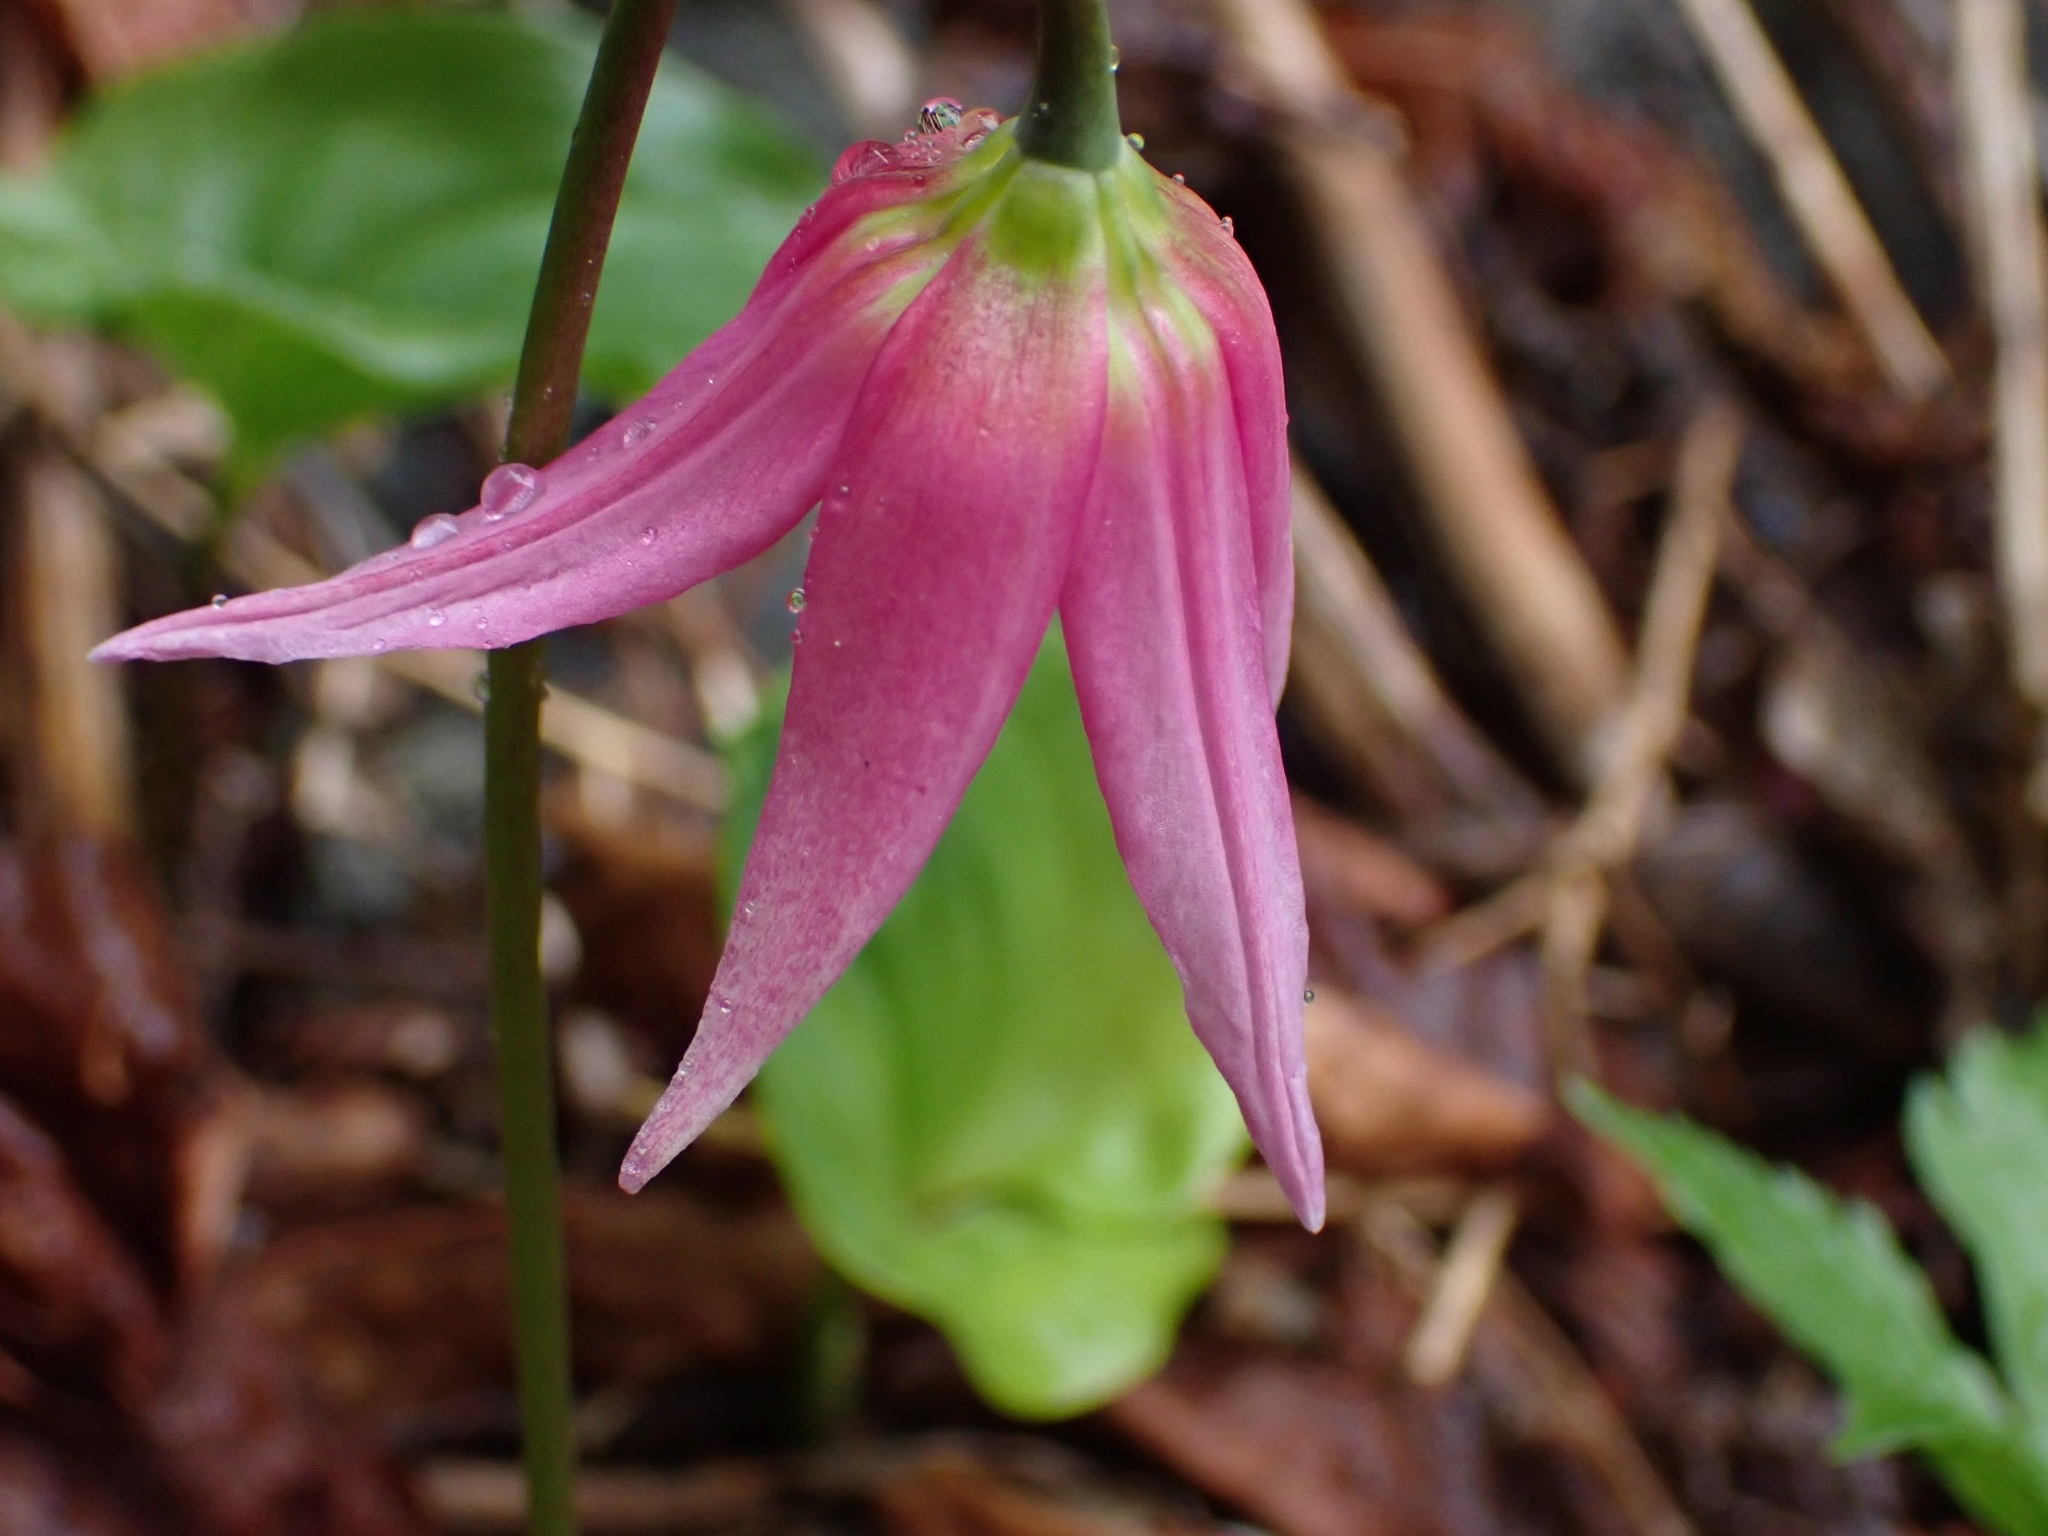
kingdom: Plantae
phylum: Tracheophyta
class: Liliopsida
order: Liliales
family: Liliaceae
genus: Erythronium
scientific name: Erythronium revolutum
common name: Pink fawn-lily
